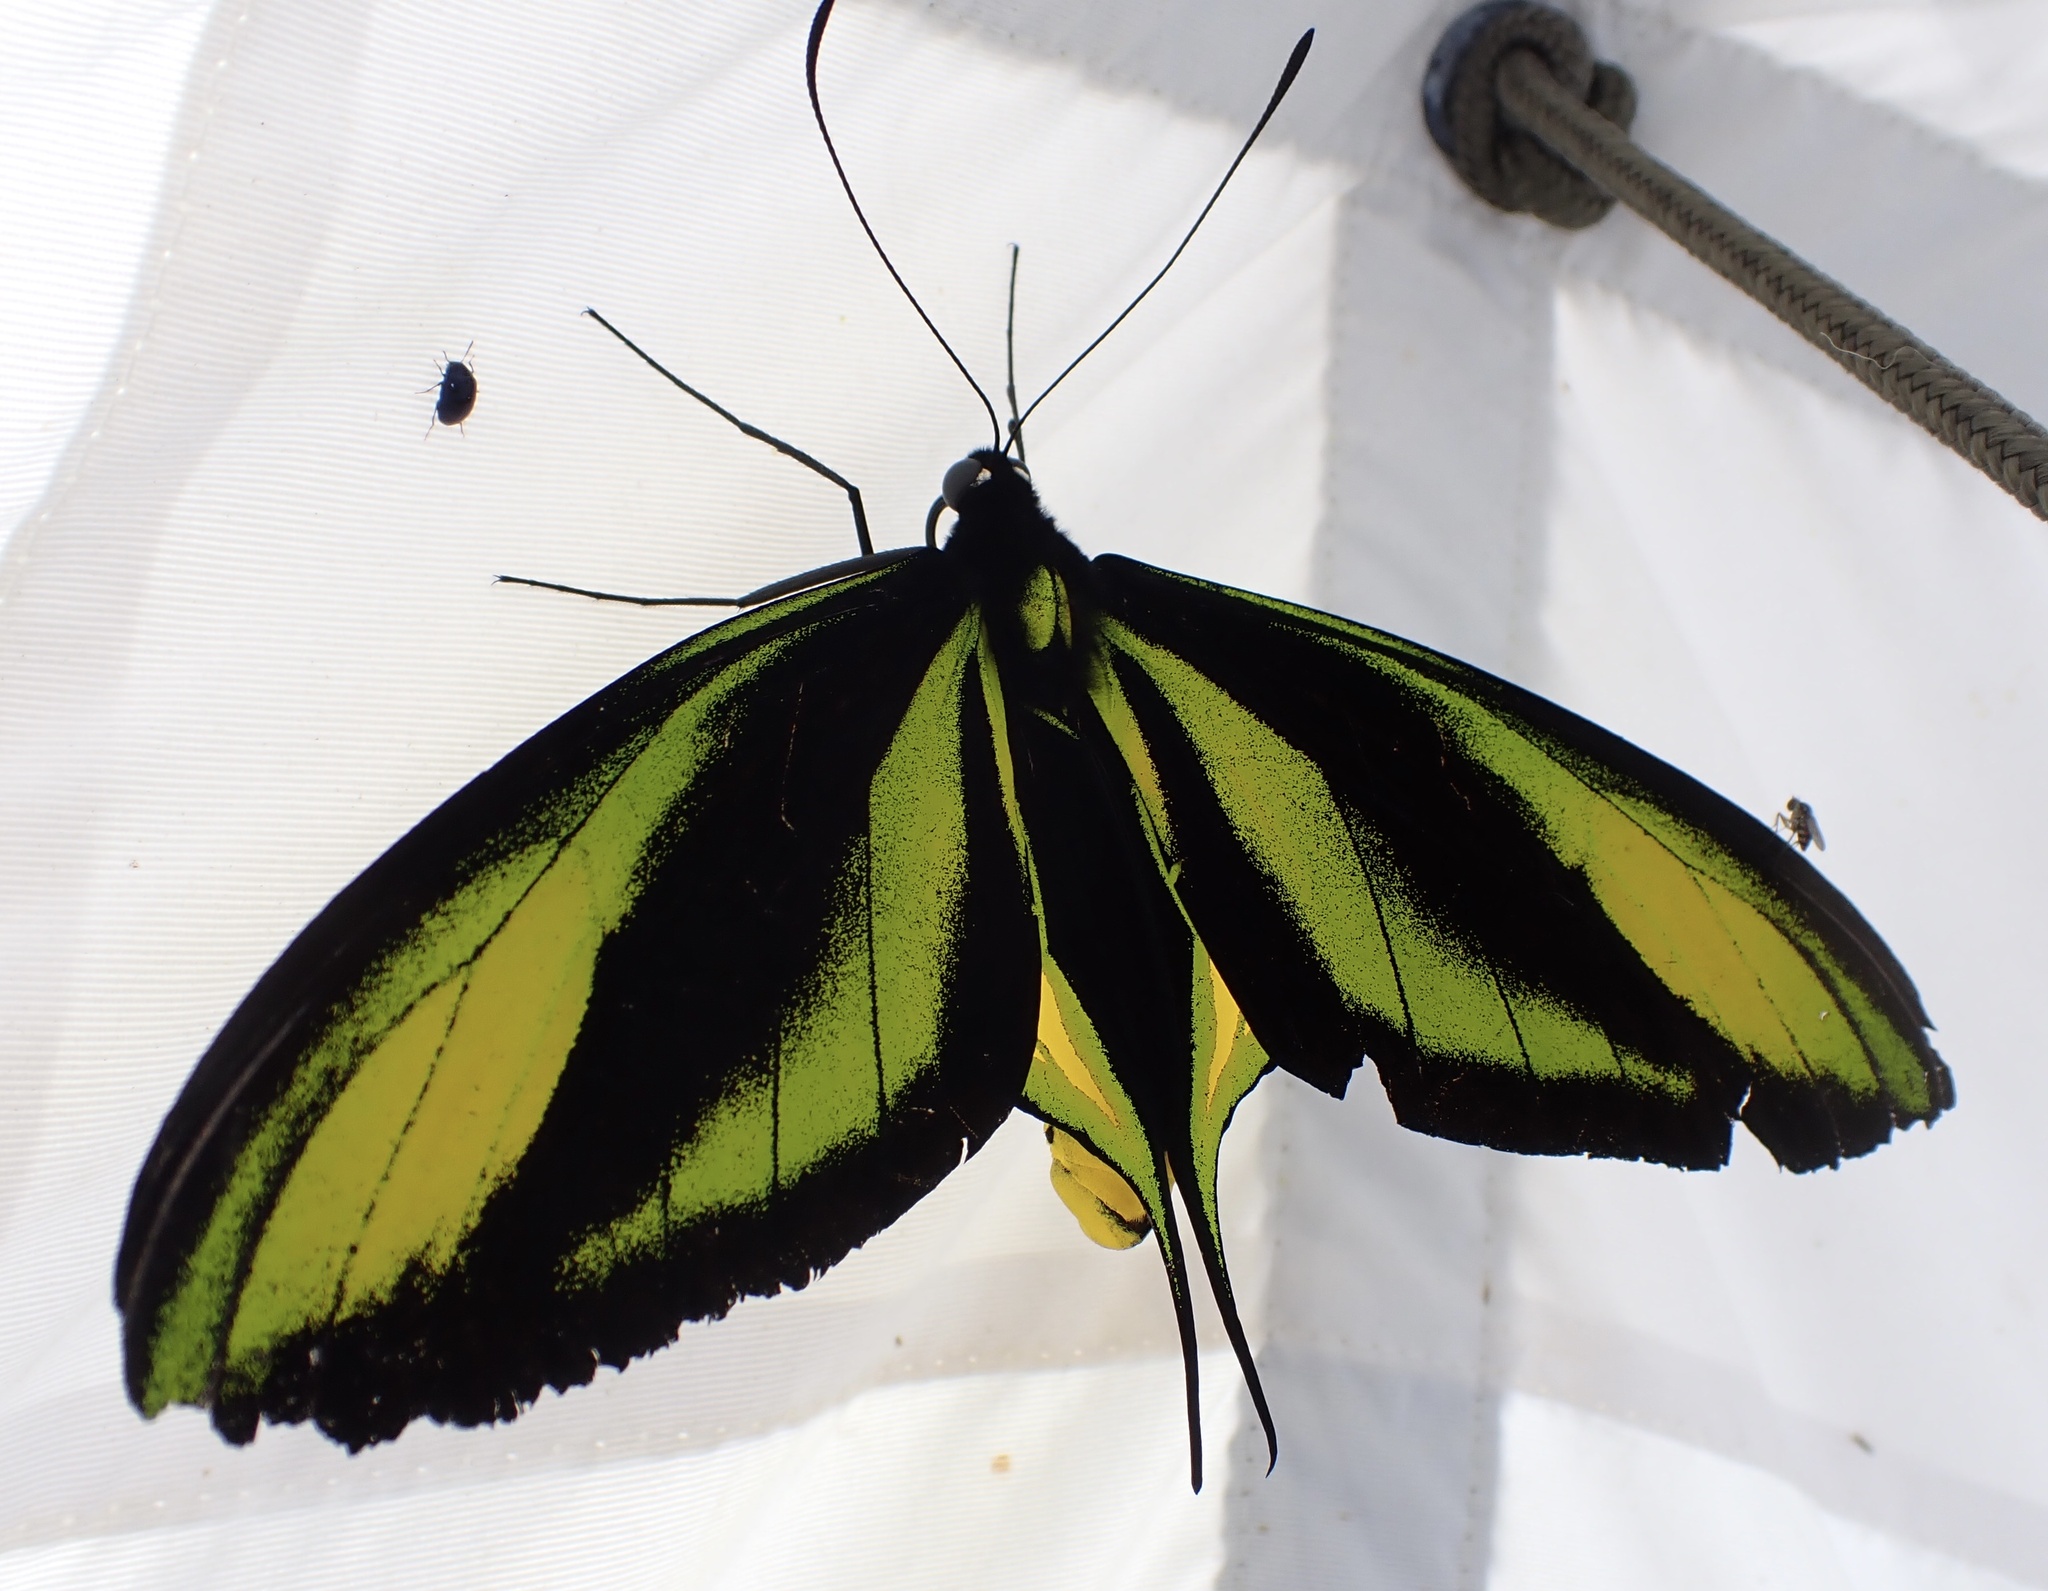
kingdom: Animalia
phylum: Arthropoda
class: Insecta
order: Lepidoptera
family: Papilionidae
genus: Ornithoptera
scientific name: Ornithoptera paradisea
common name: Butterfly of paradise
